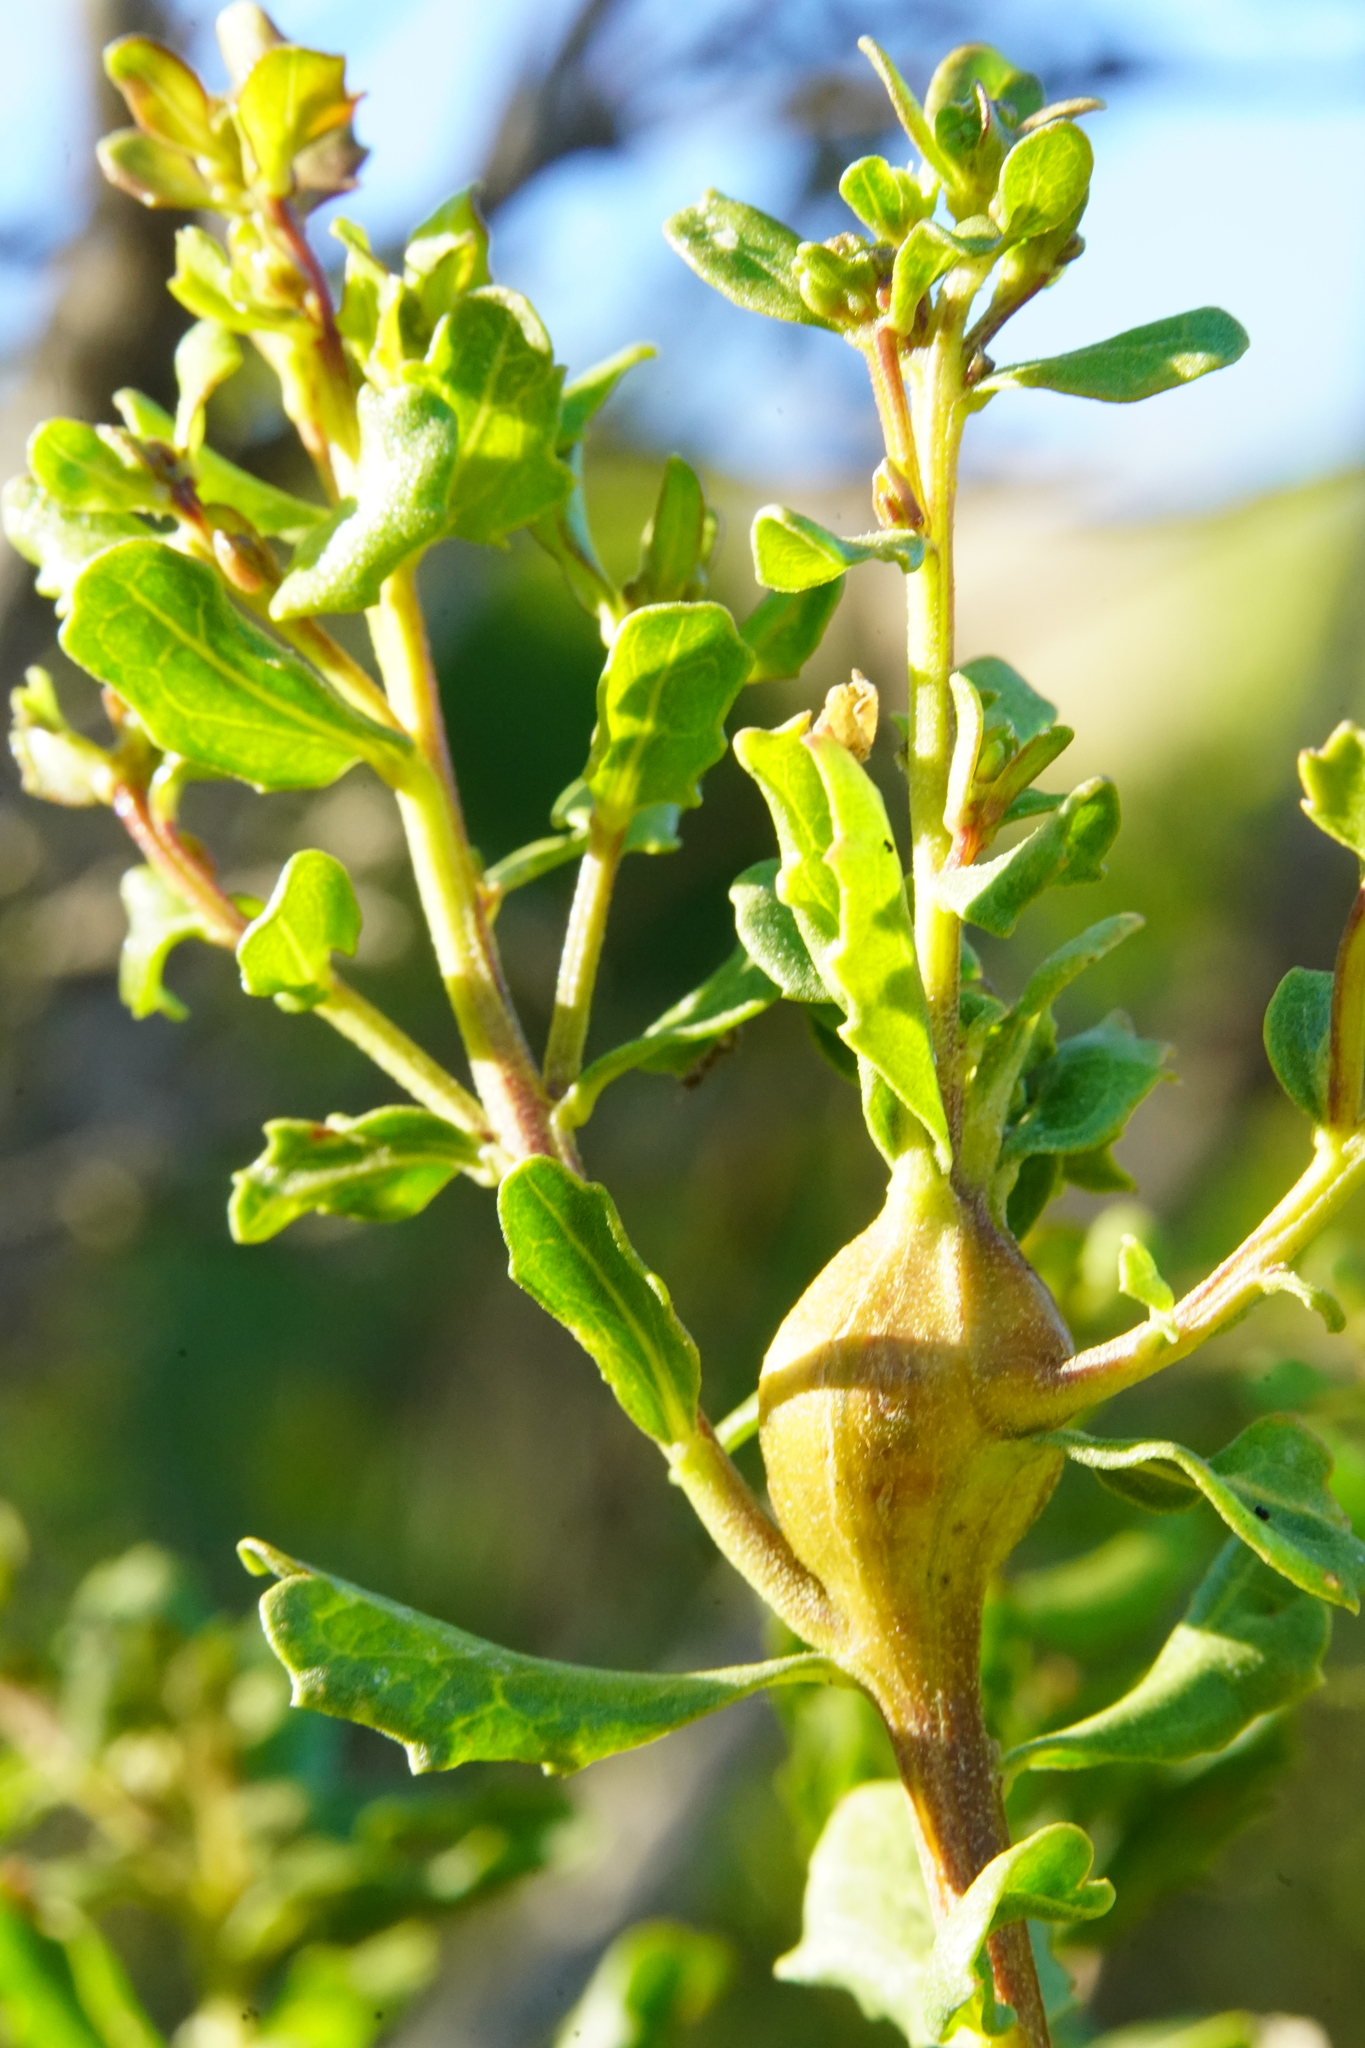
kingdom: Animalia
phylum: Arthropoda
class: Insecta
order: Lepidoptera
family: Gelechiidae
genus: Gnorimoschema
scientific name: Gnorimoschema baccharisella
